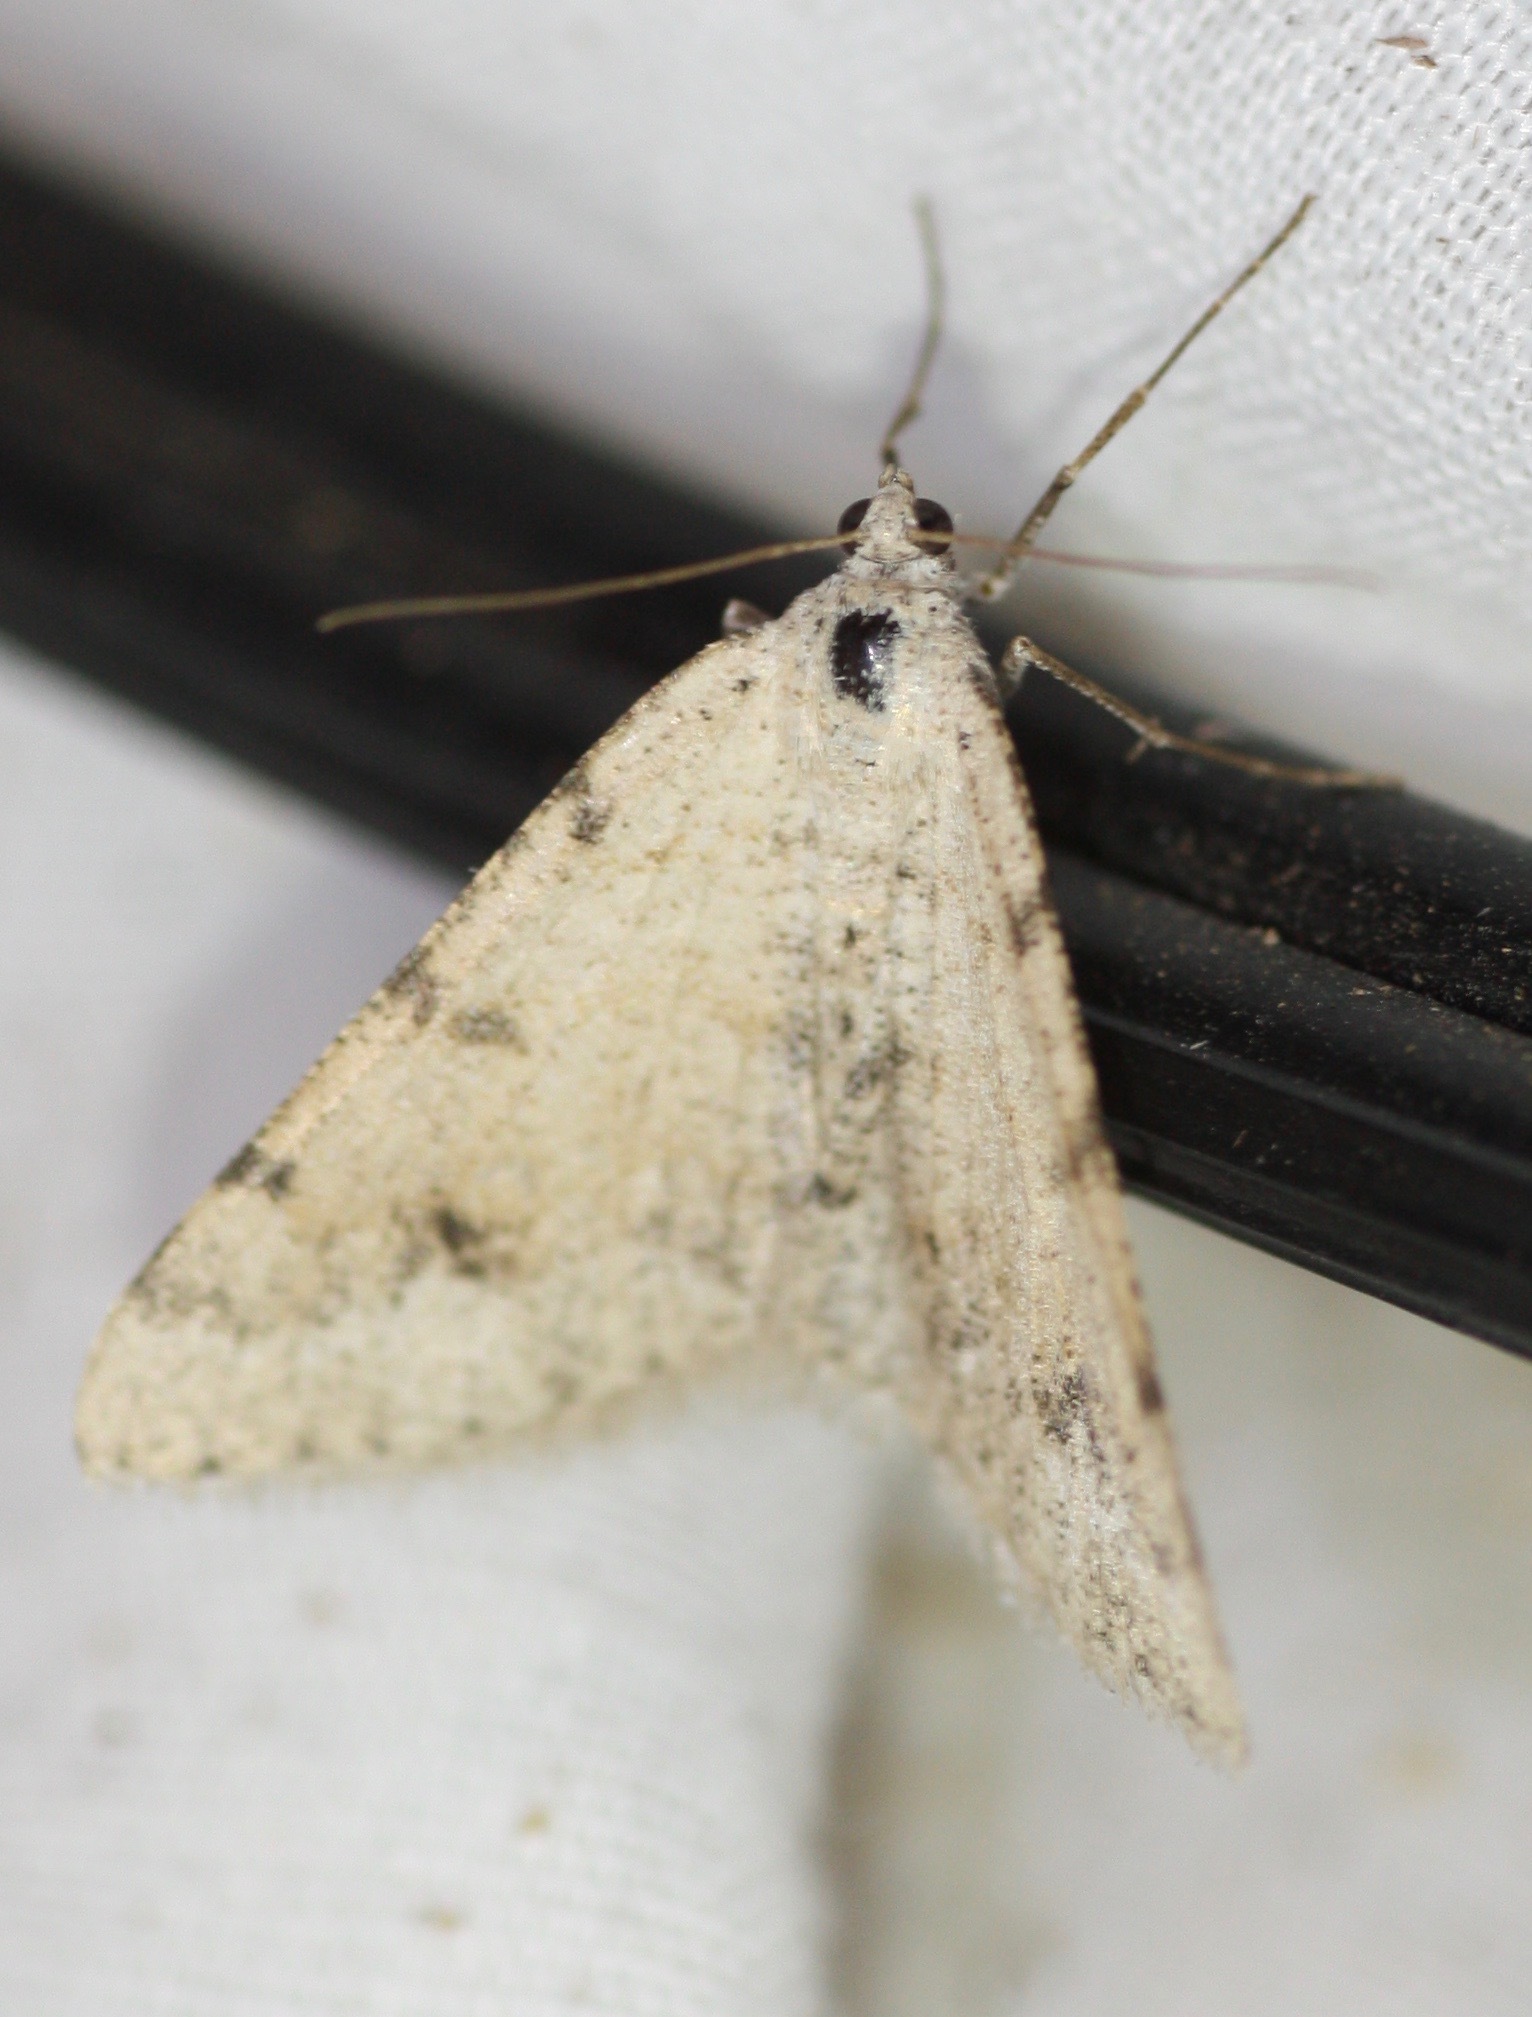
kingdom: Animalia
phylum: Arthropoda
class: Insecta
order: Lepidoptera
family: Geometridae
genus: Digrammia
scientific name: Digrammia colorata
